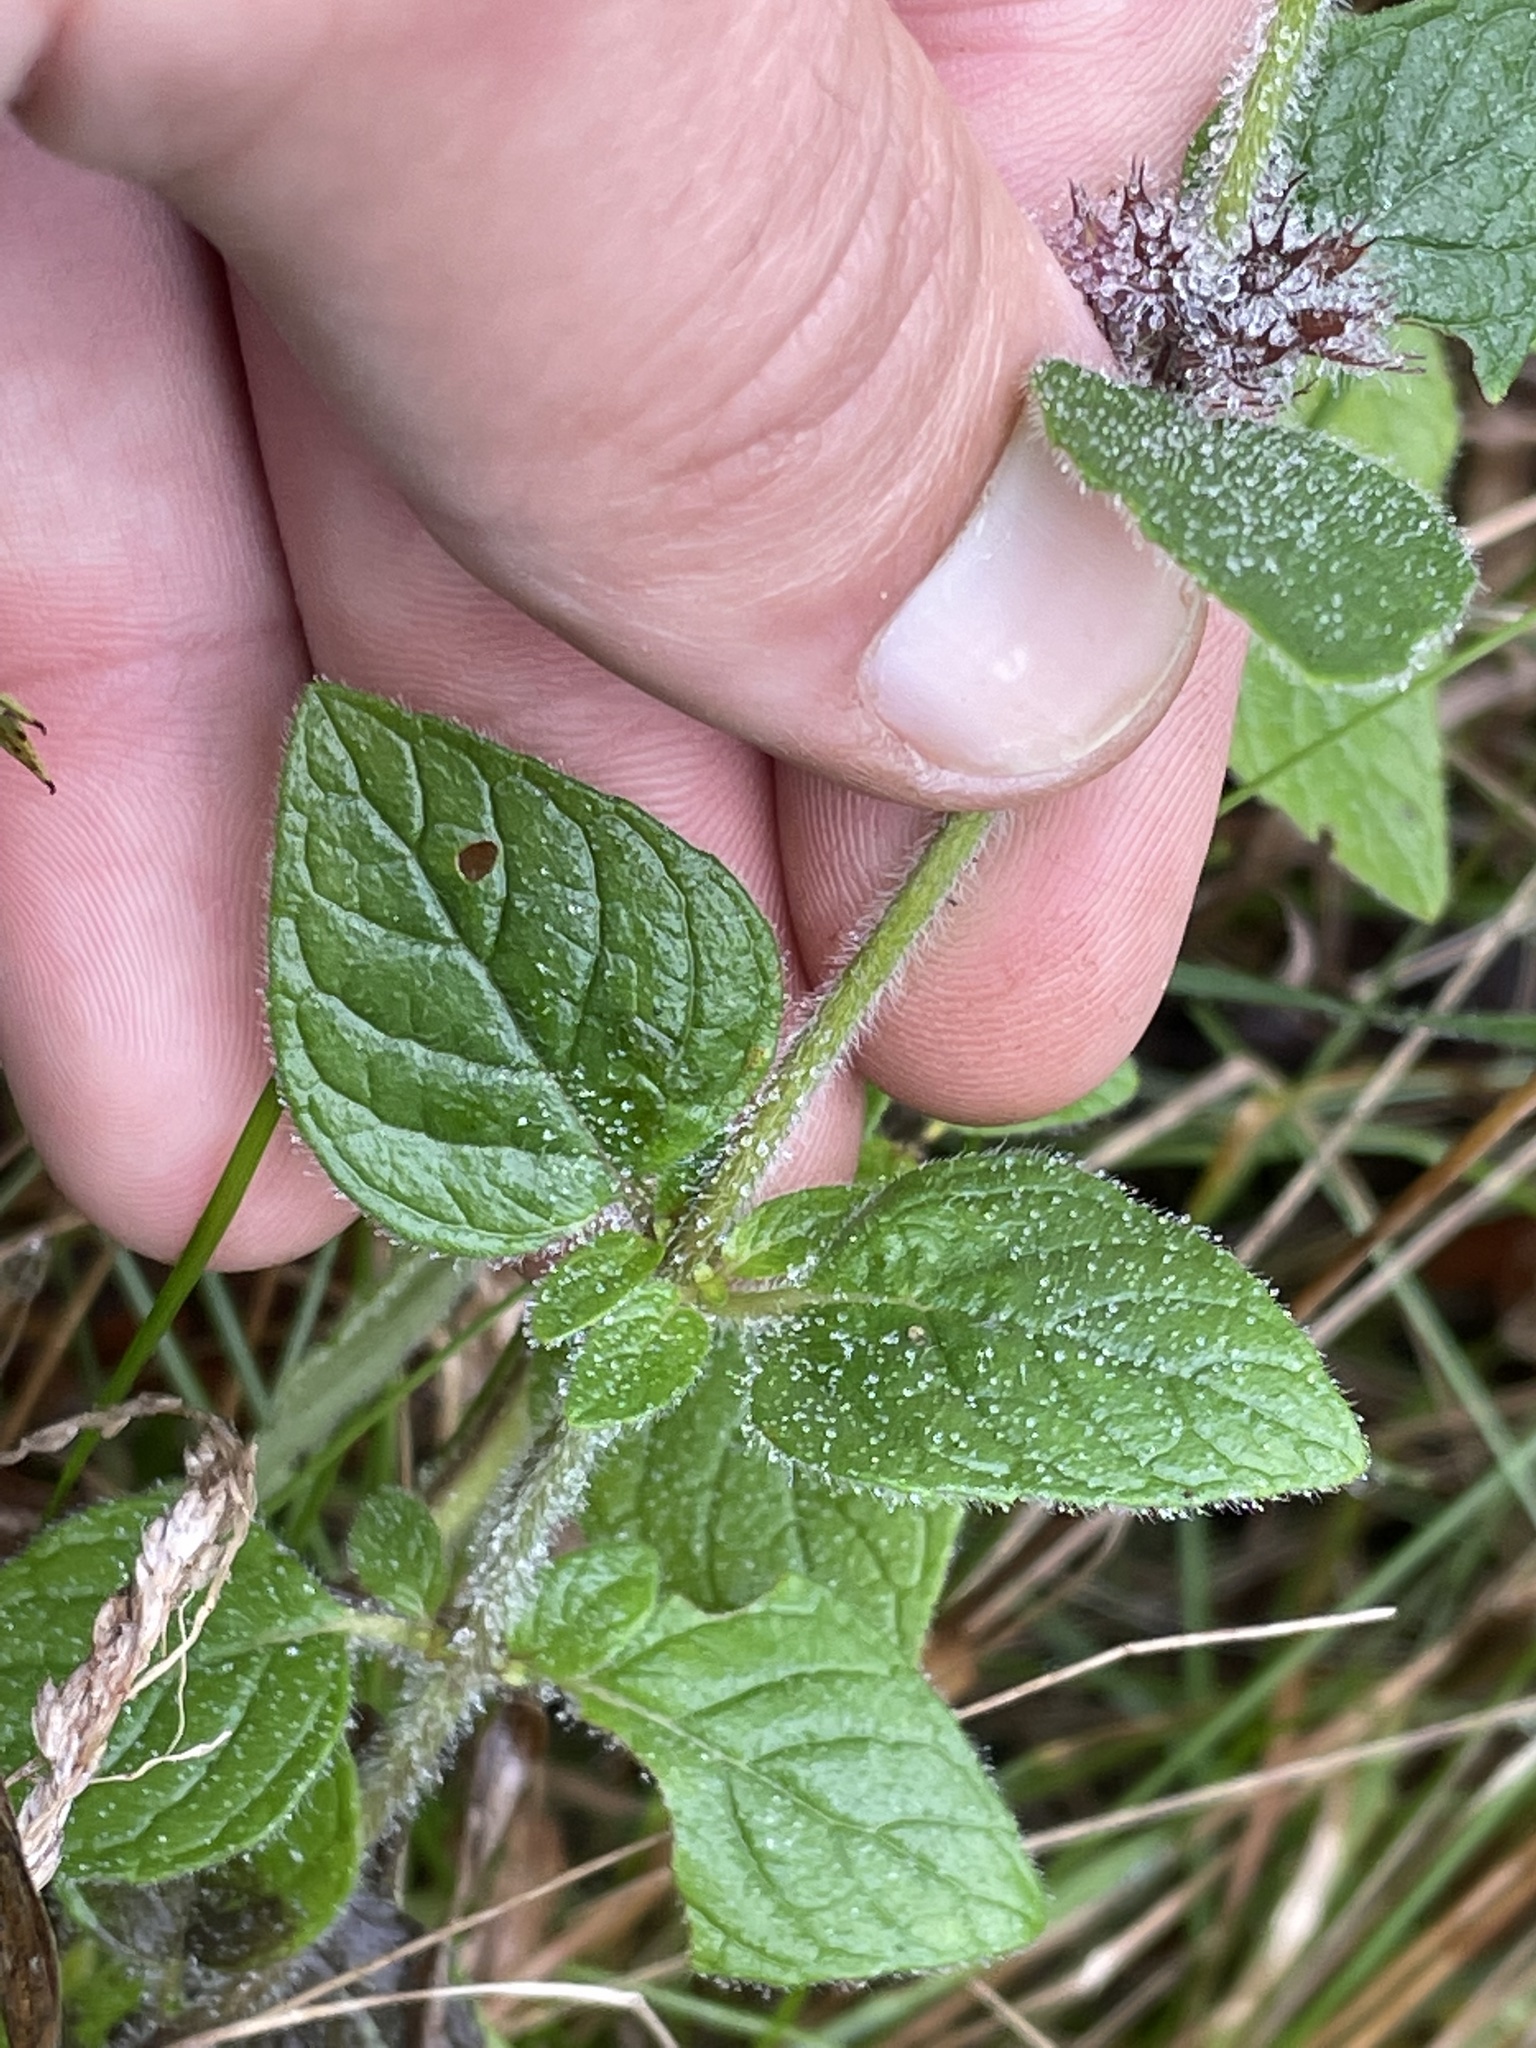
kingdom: Plantae
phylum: Tracheophyta
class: Magnoliopsida
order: Lamiales
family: Lamiaceae
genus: Clinopodium
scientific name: Clinopodium vulgare
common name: Wild basil
